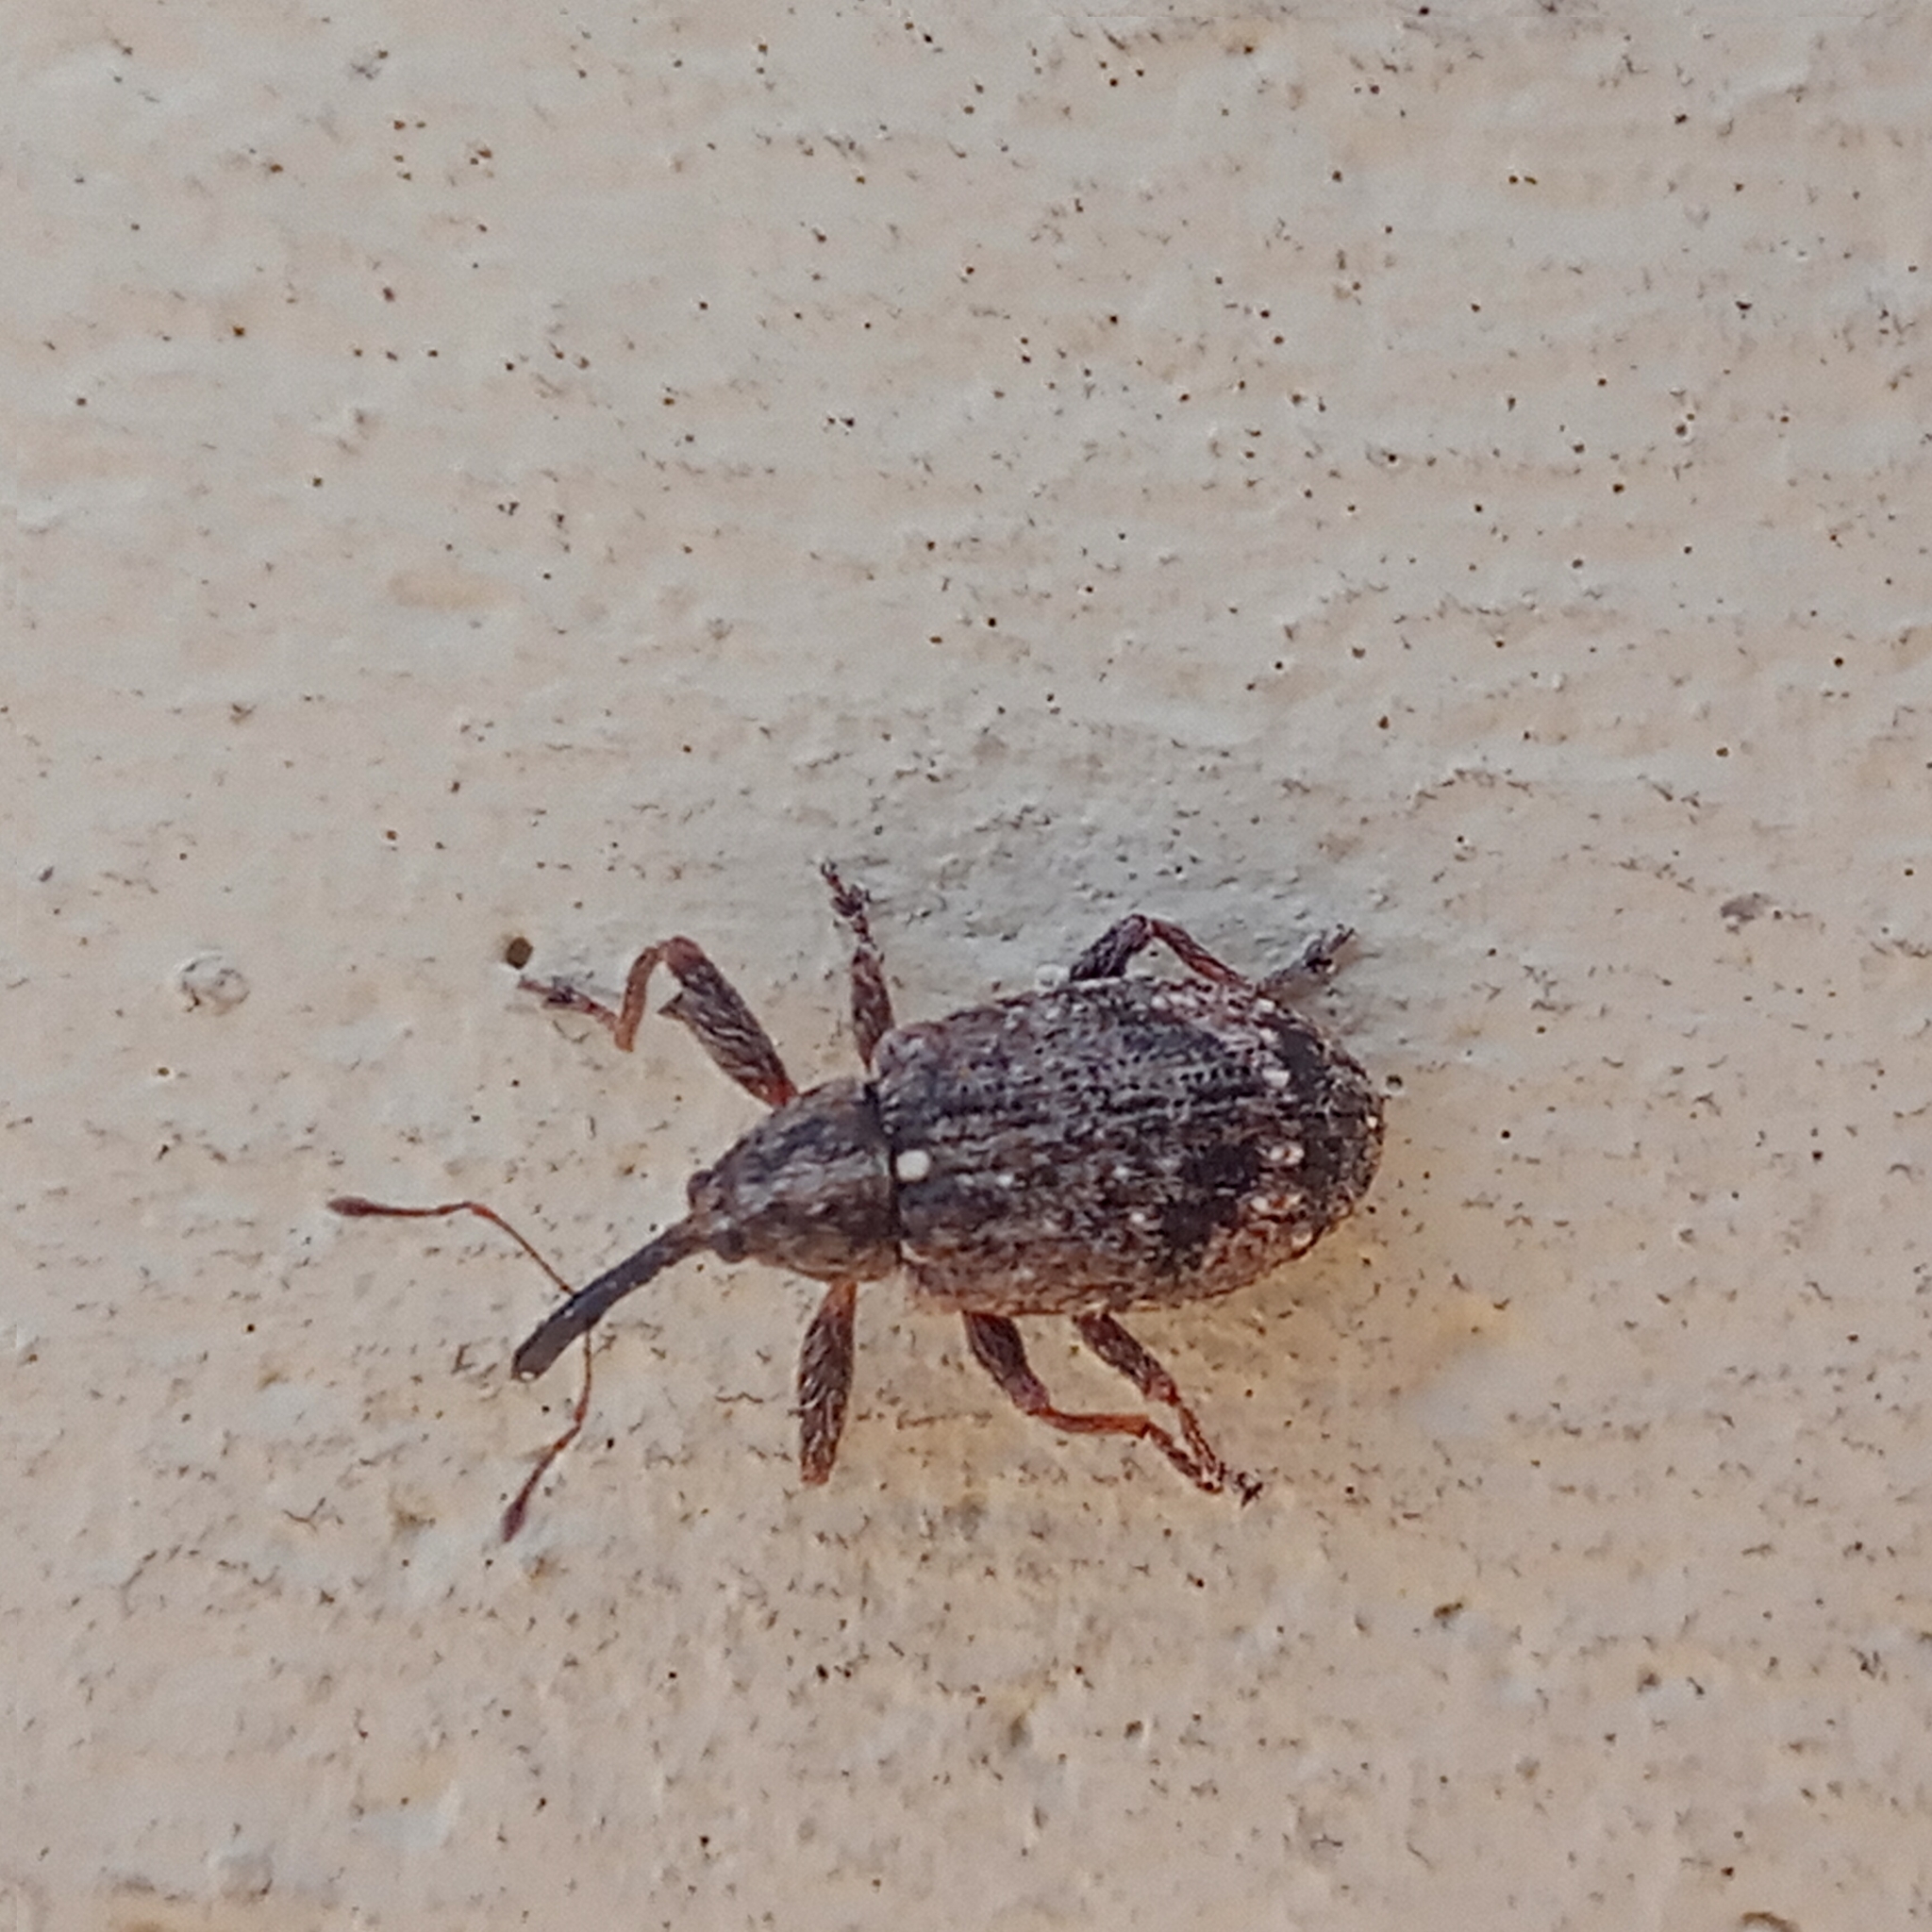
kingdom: Animalia
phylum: Arthropoda
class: Insecta
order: Coleoptera
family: Curculionidae
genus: Anthonomus
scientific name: Anthonomus pomorum
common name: Apple-blossom weevil
